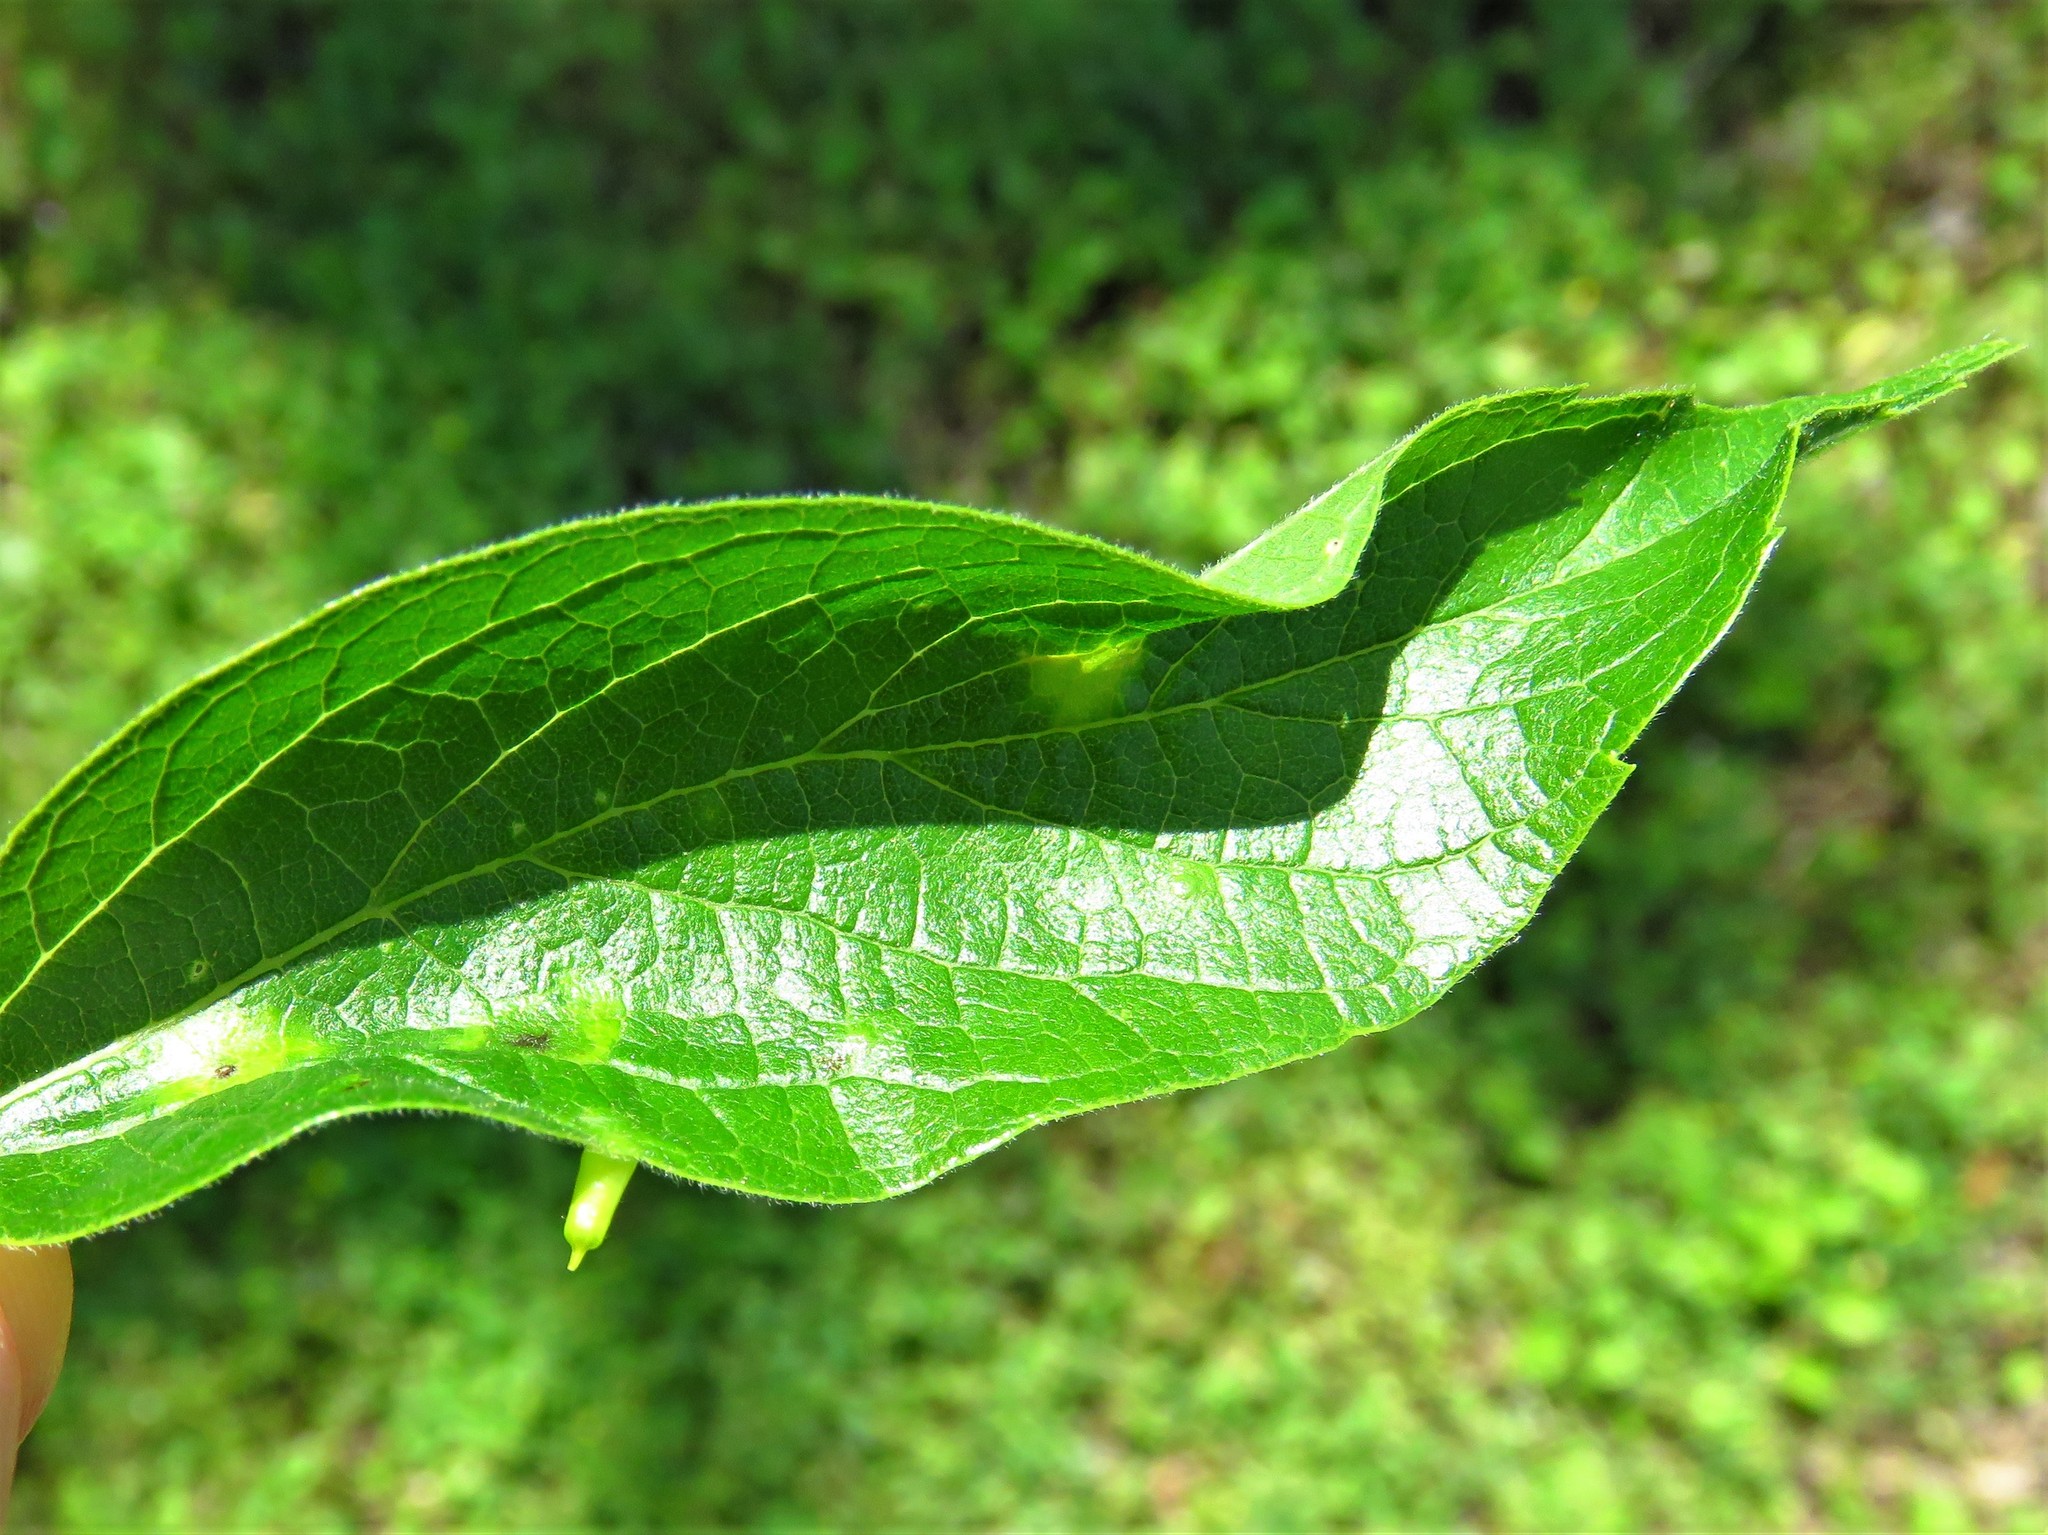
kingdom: Animalia
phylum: Arthropoda
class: Insecta
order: Diptera
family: Cecidomyiidae
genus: Celticecis
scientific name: Celticecis aciculata
